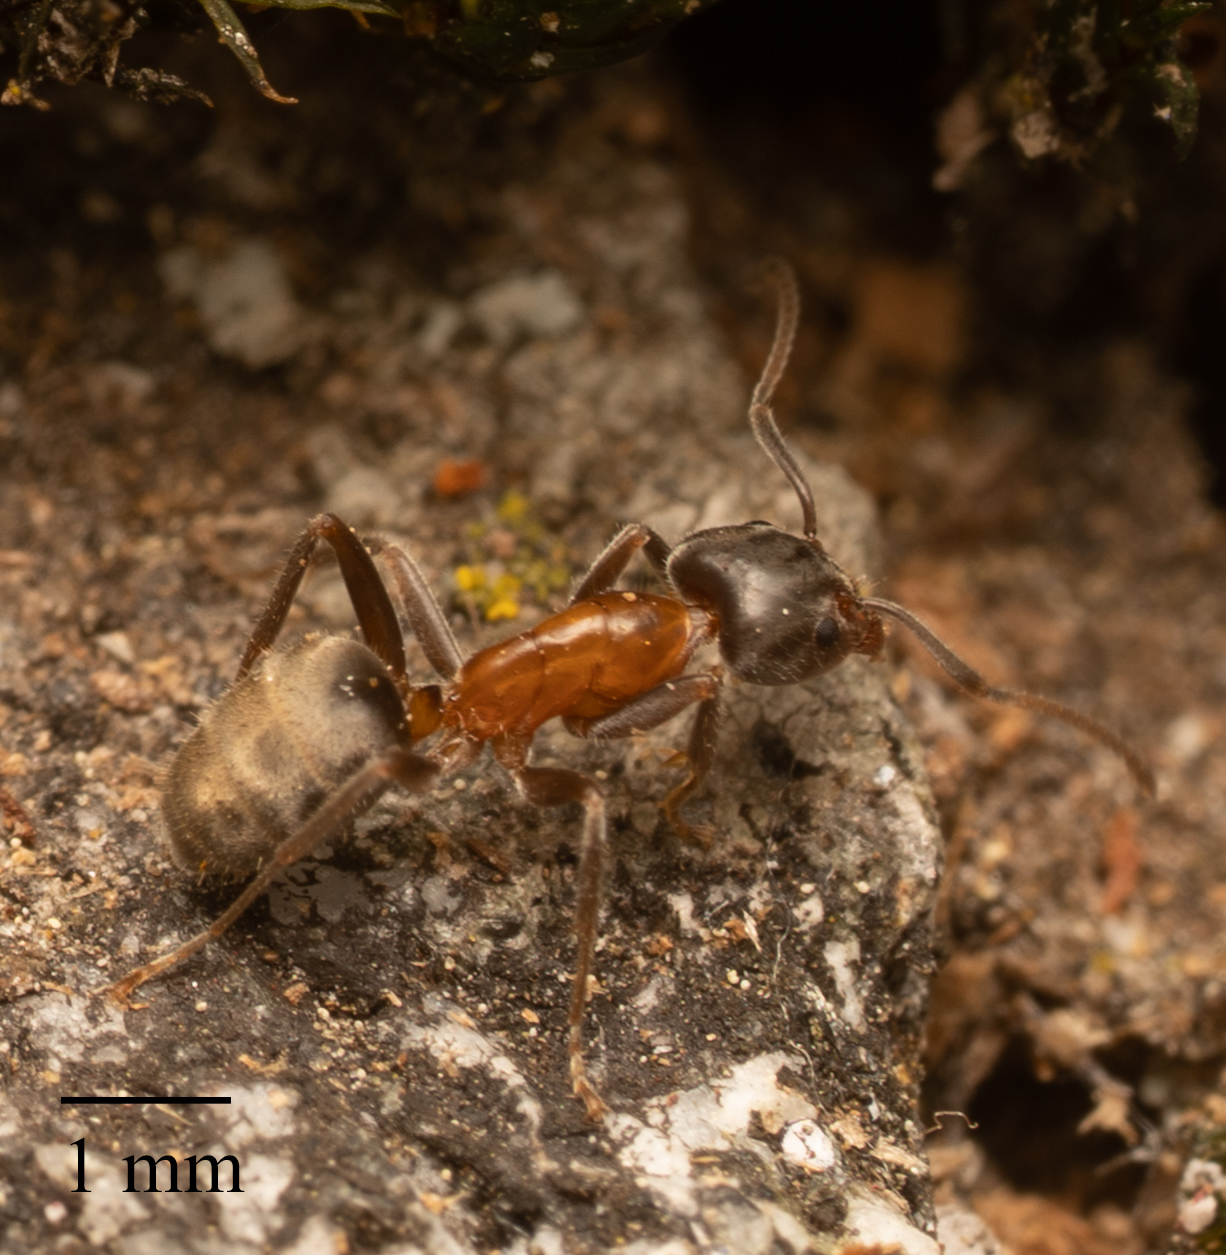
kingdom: Animalia
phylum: Arthropoda
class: Insecta
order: Hymenoptera
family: Formicidae
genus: Liometopum
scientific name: Liometopum occidentale
